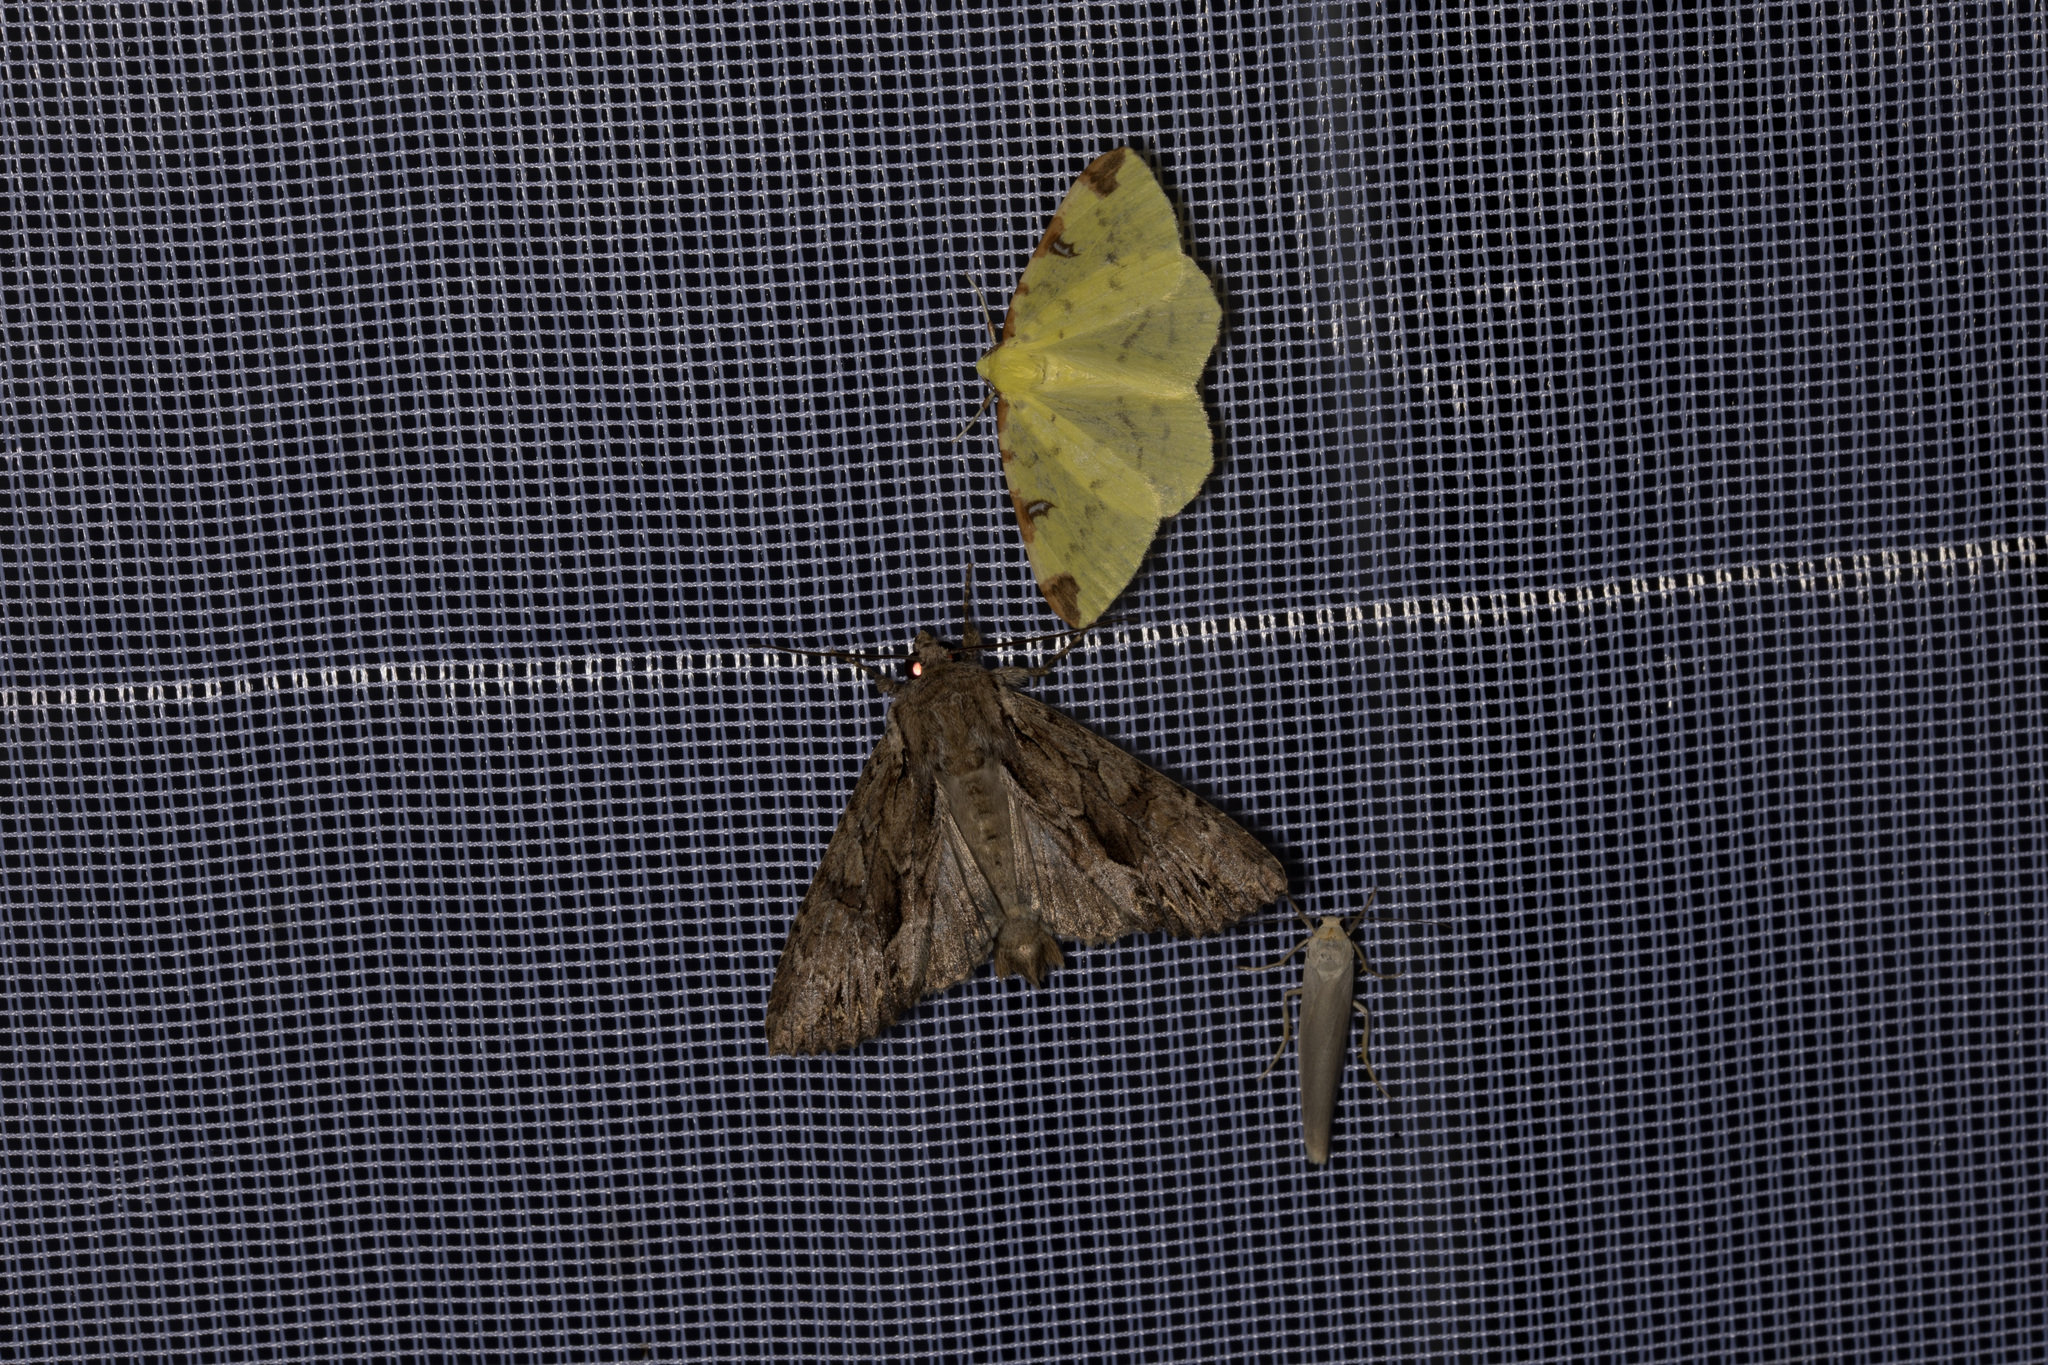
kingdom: Animalia
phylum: Arthropoda
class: Insecta
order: Lepidoptera
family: Noctuidae
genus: Apamea
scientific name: Apamea monoglypha
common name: Dark arches
